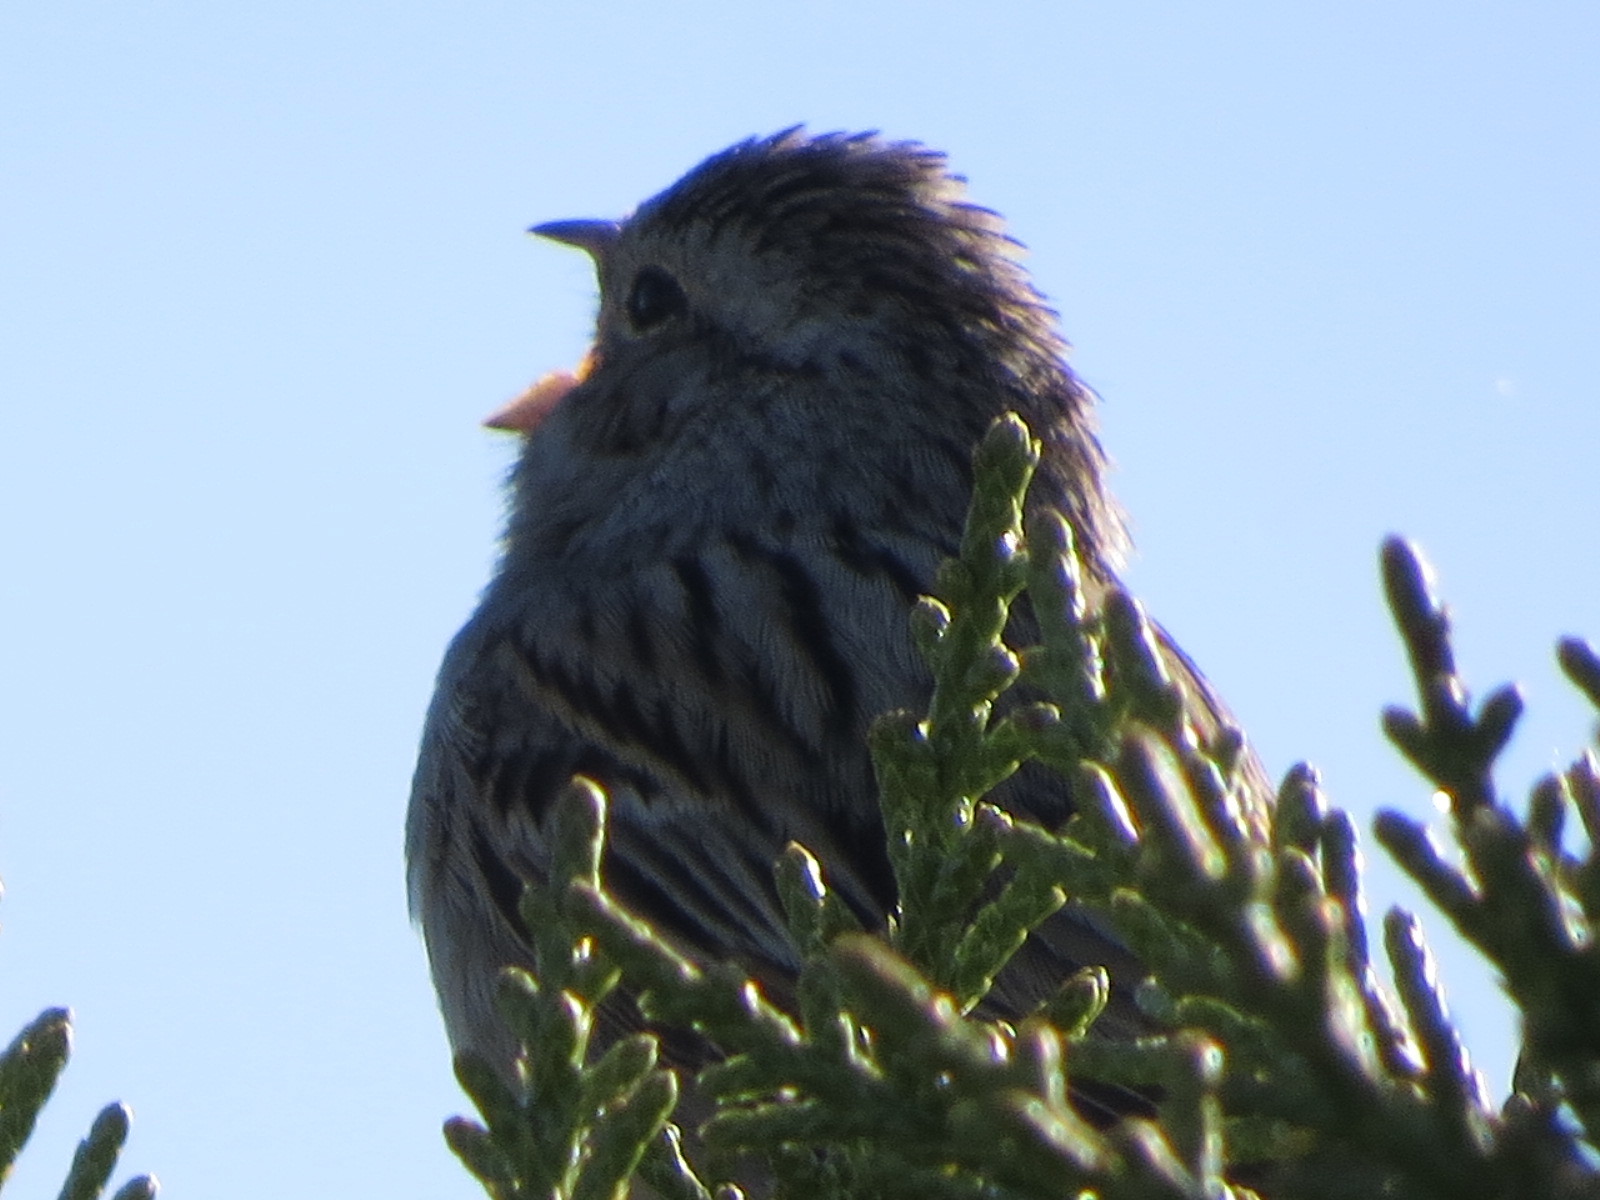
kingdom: Animalia
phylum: Chordata
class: Aves
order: Passeriformes
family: Passerellidae
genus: Spizella
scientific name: Spizella breweri
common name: Brewer's sparrow
